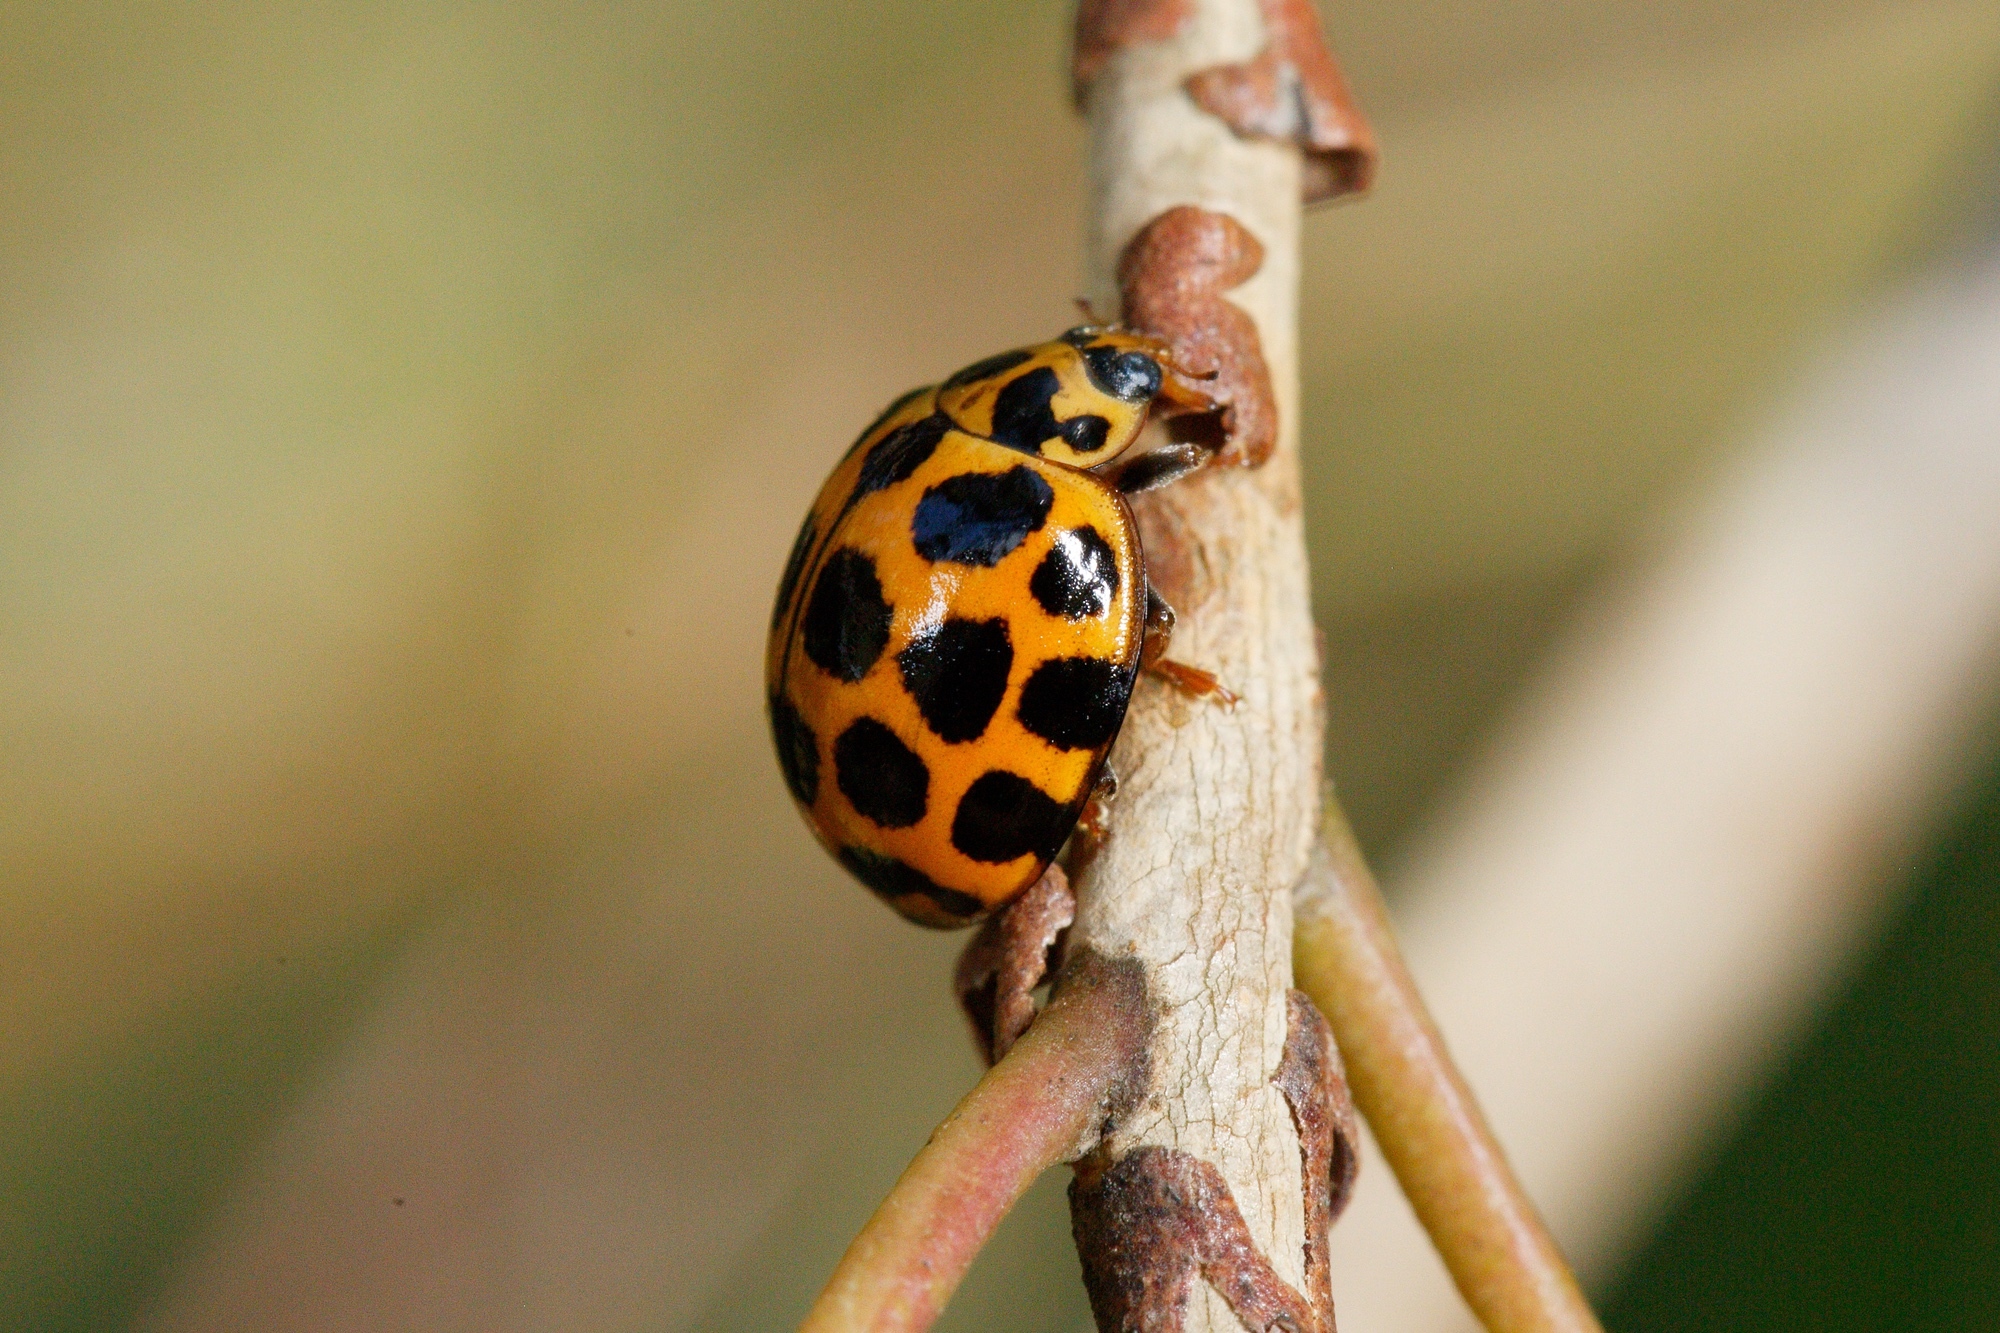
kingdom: Animalia
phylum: Arthropoda
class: Insecta
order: Coleoptera
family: Coccinellidae
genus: Harmonia
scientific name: Harmonia conformis
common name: Common spotted ladybird beetle
